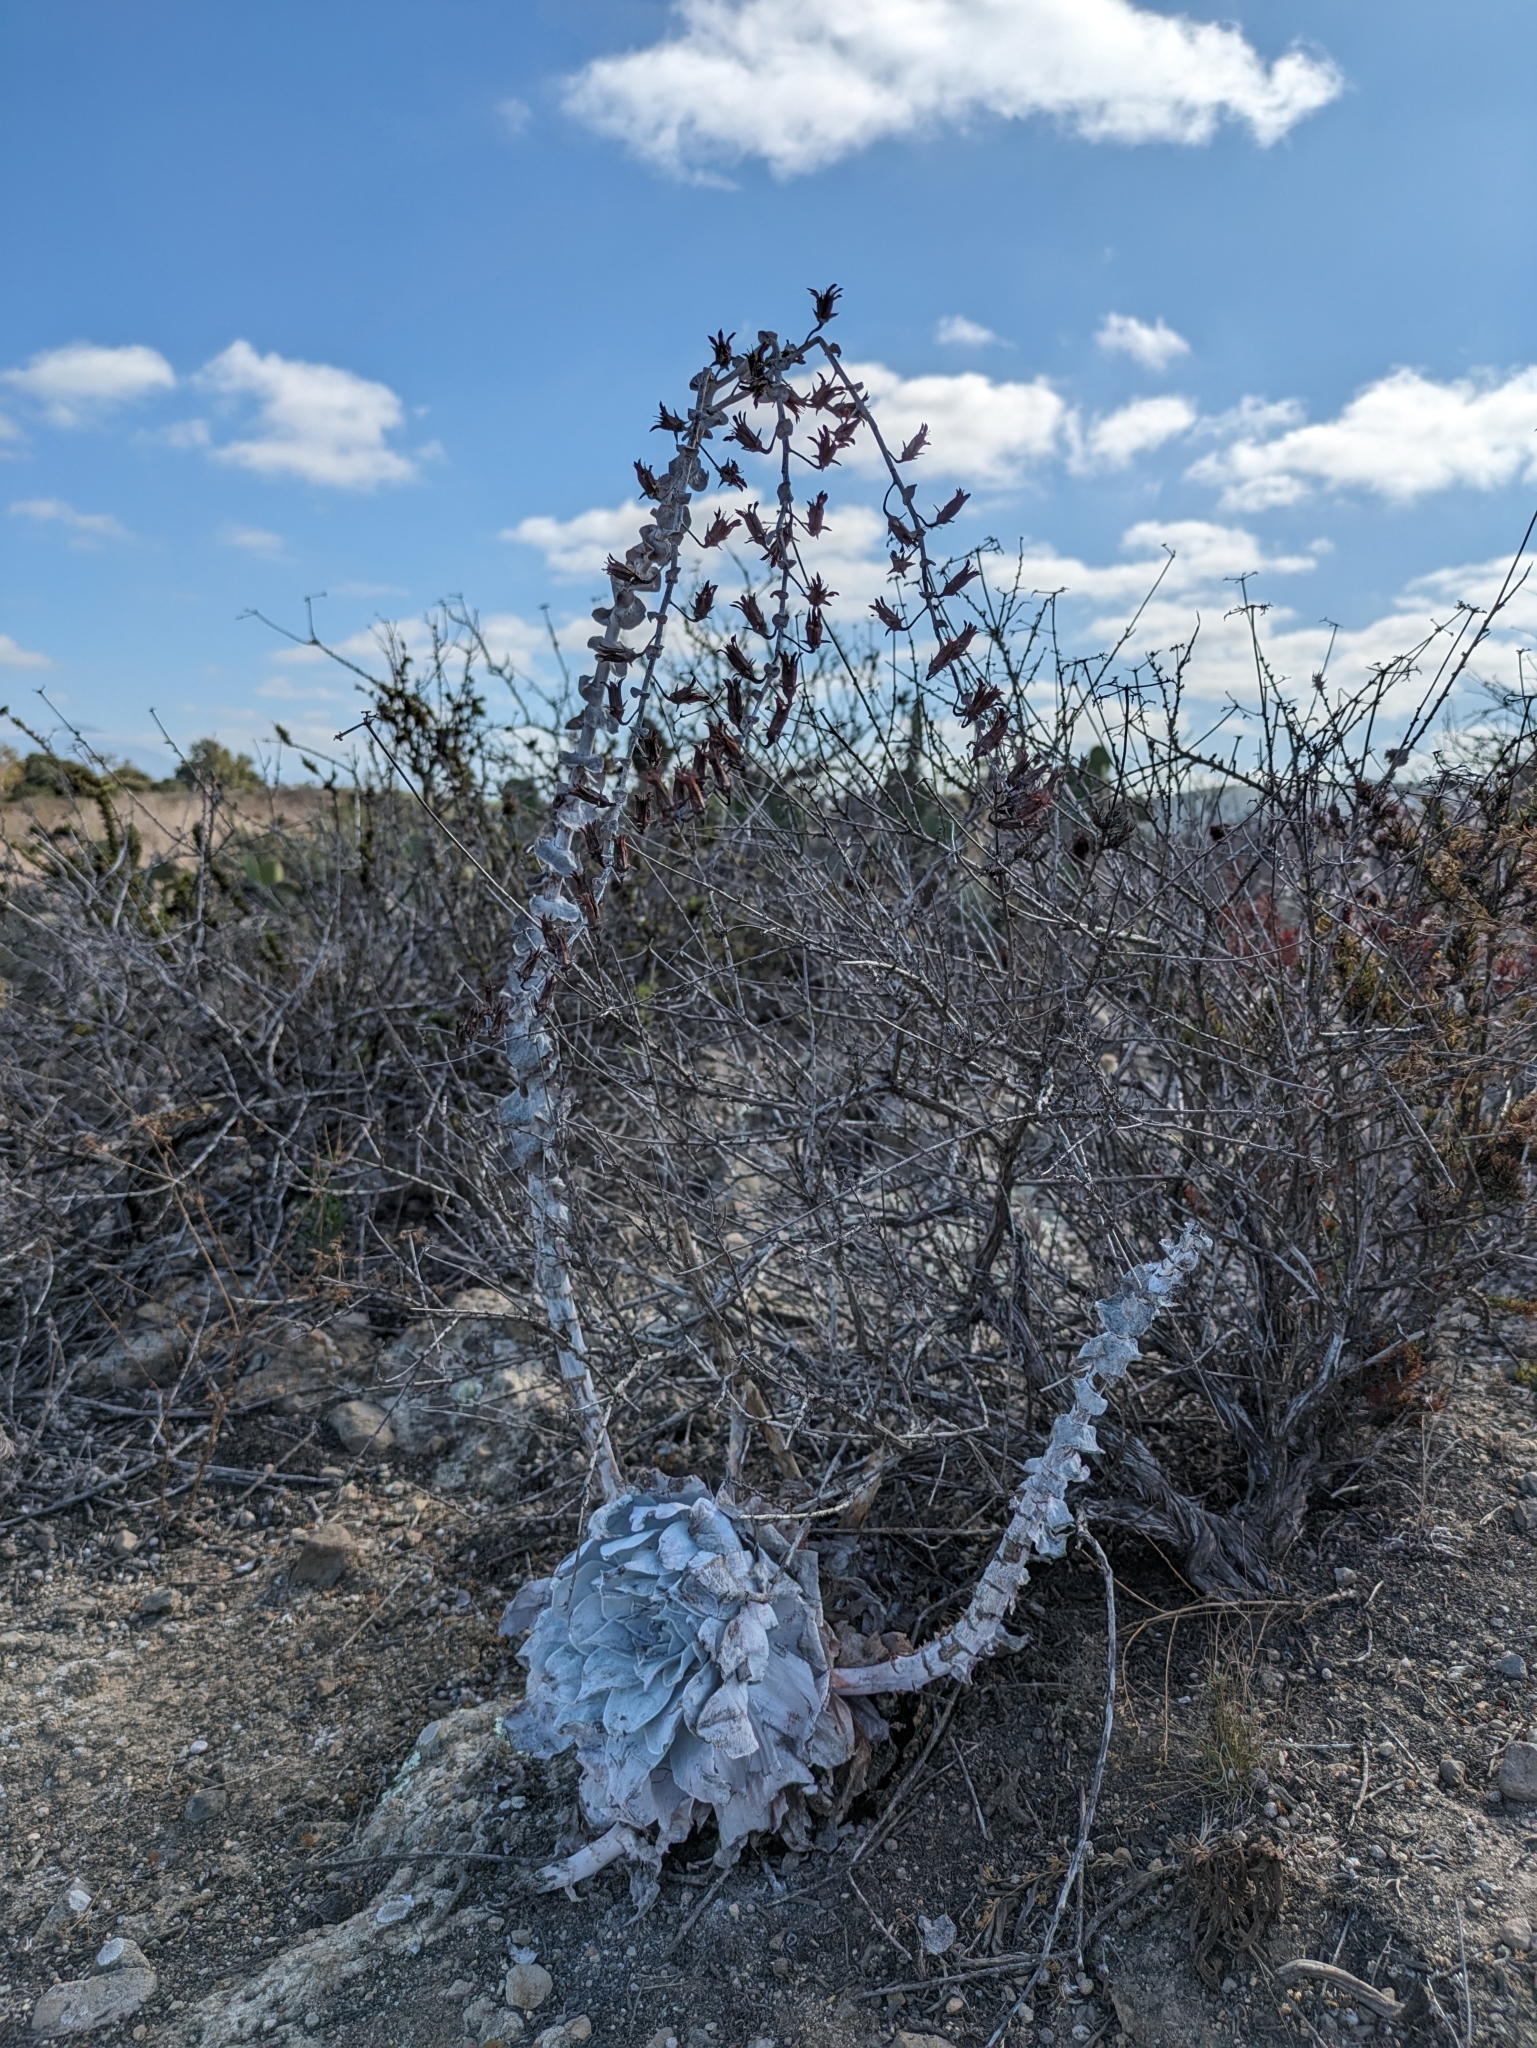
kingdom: Plantae
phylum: Tracheophyta
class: Magnoliopsida
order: Saxifragales
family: Crassulaceae
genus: Dudleya
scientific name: Dudleya pulverulenta
